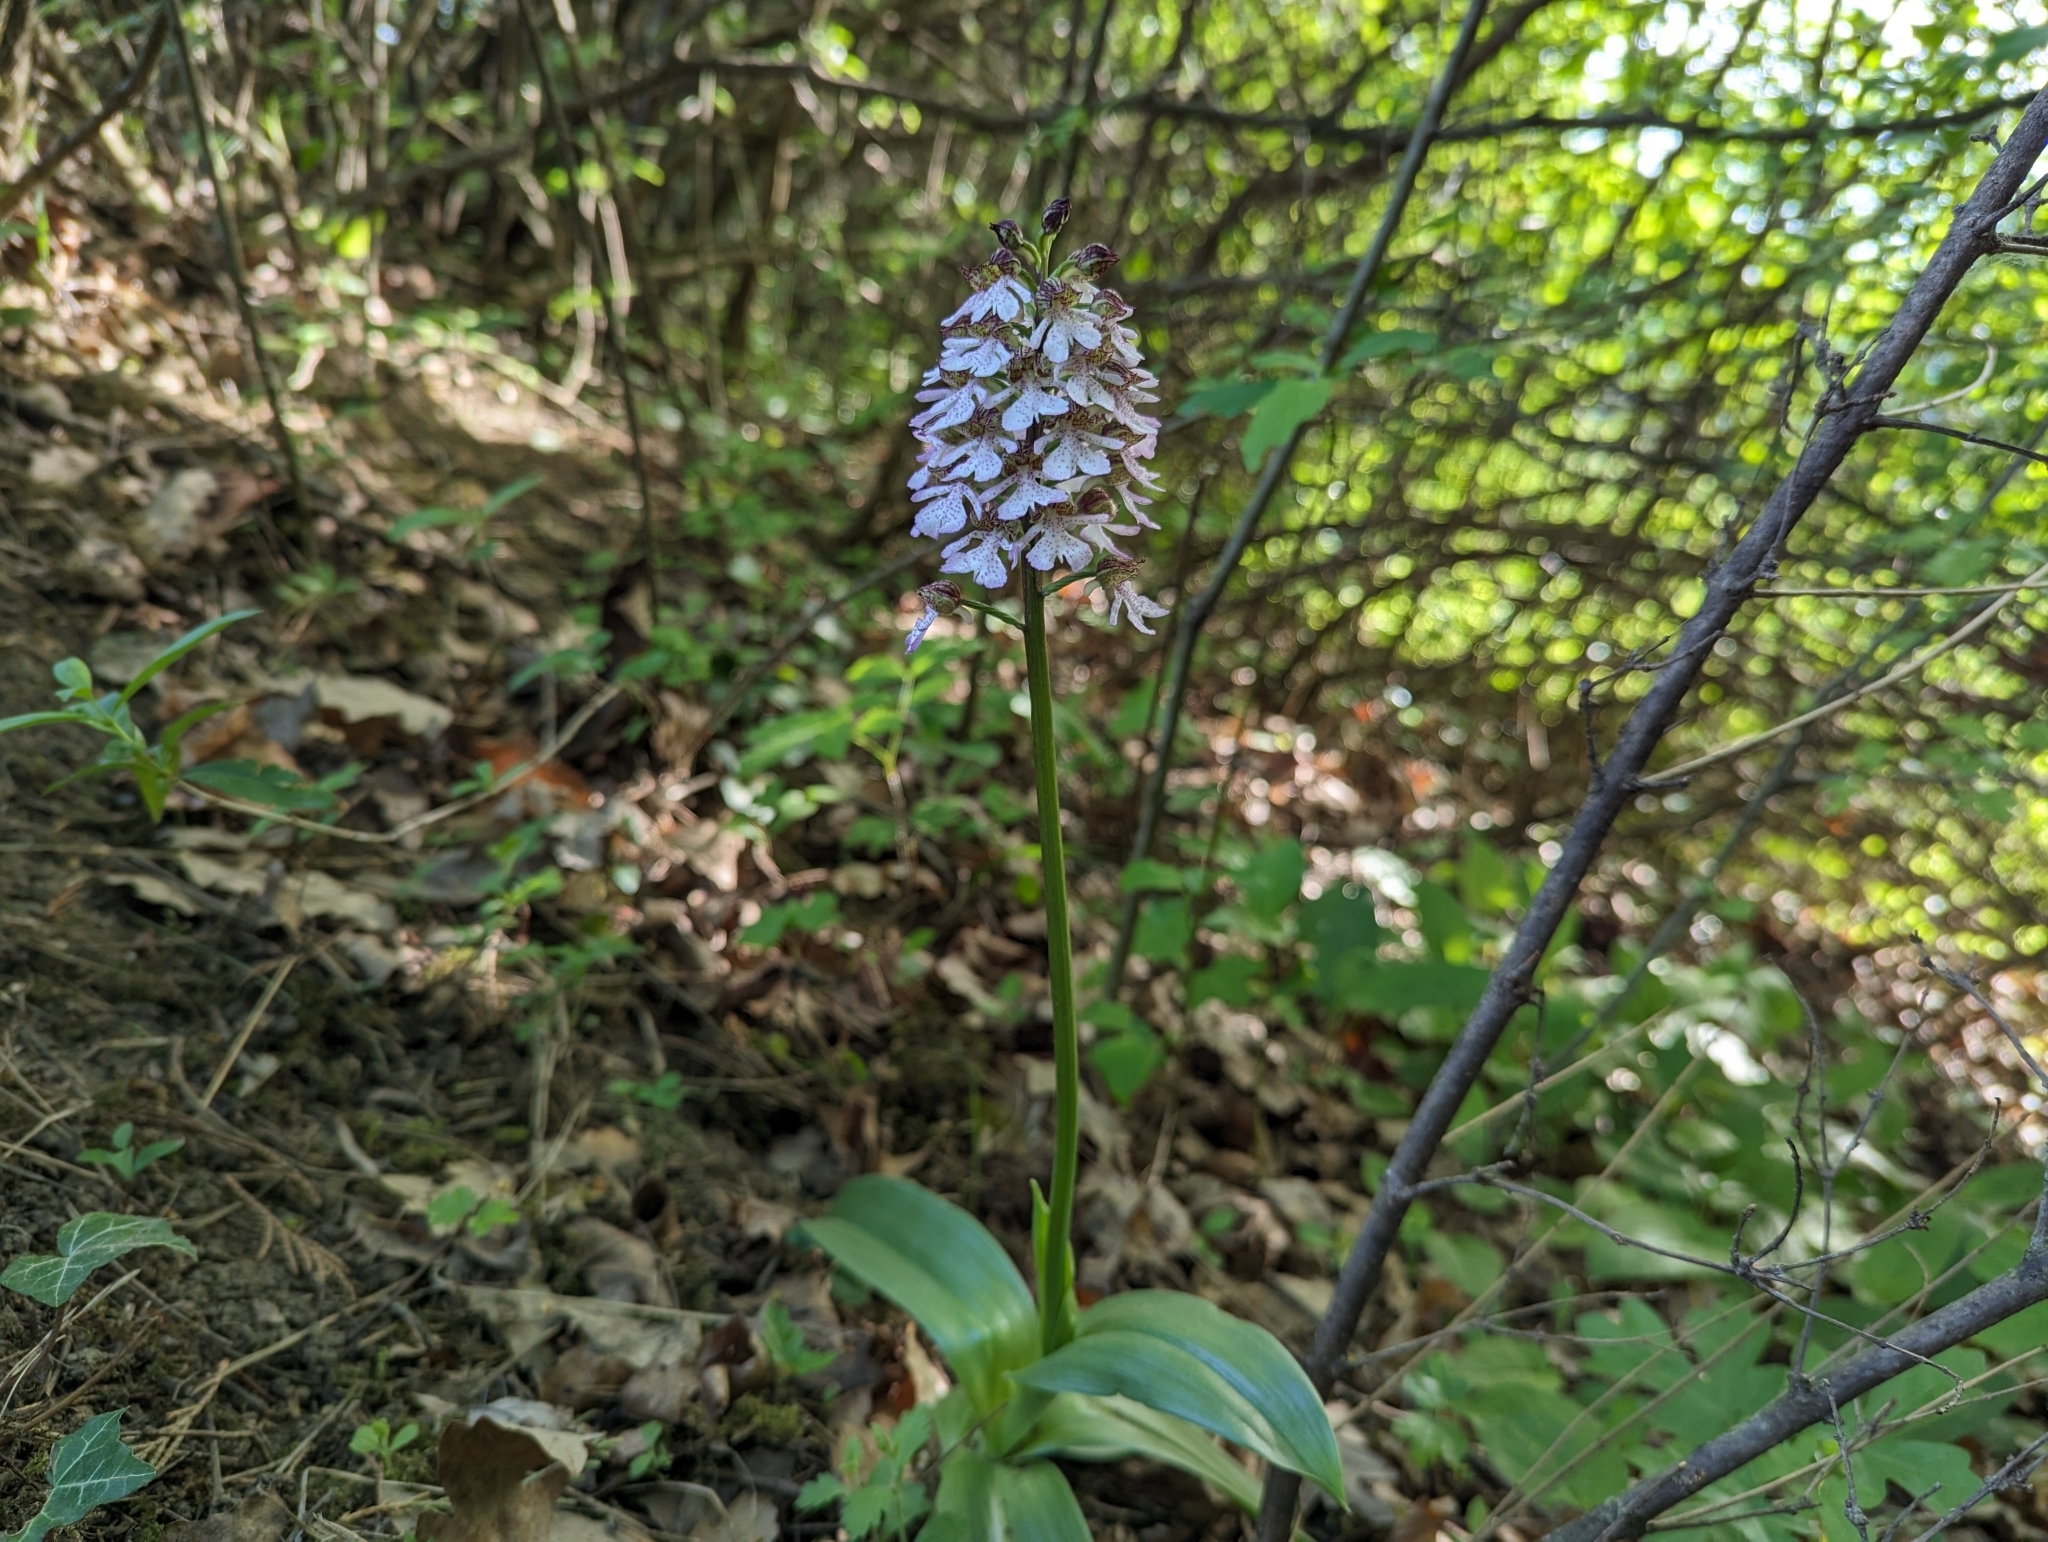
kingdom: Plantae
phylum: Tracheophyta
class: Liliopsida
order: Asparagales
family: Orchidaceae
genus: Orchis
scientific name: Orchis purpurea
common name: Lady orchid
